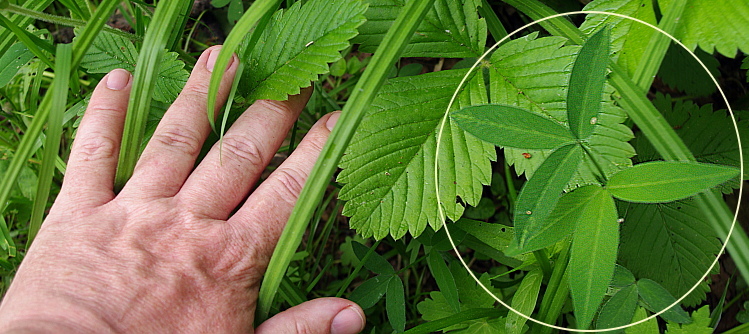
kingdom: Plantae
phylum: Tracheophyta
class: Magnoliopsida
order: Fabales
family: Fabaceae
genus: Trifolium
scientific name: Trifolium medium
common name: Zigzag clover
